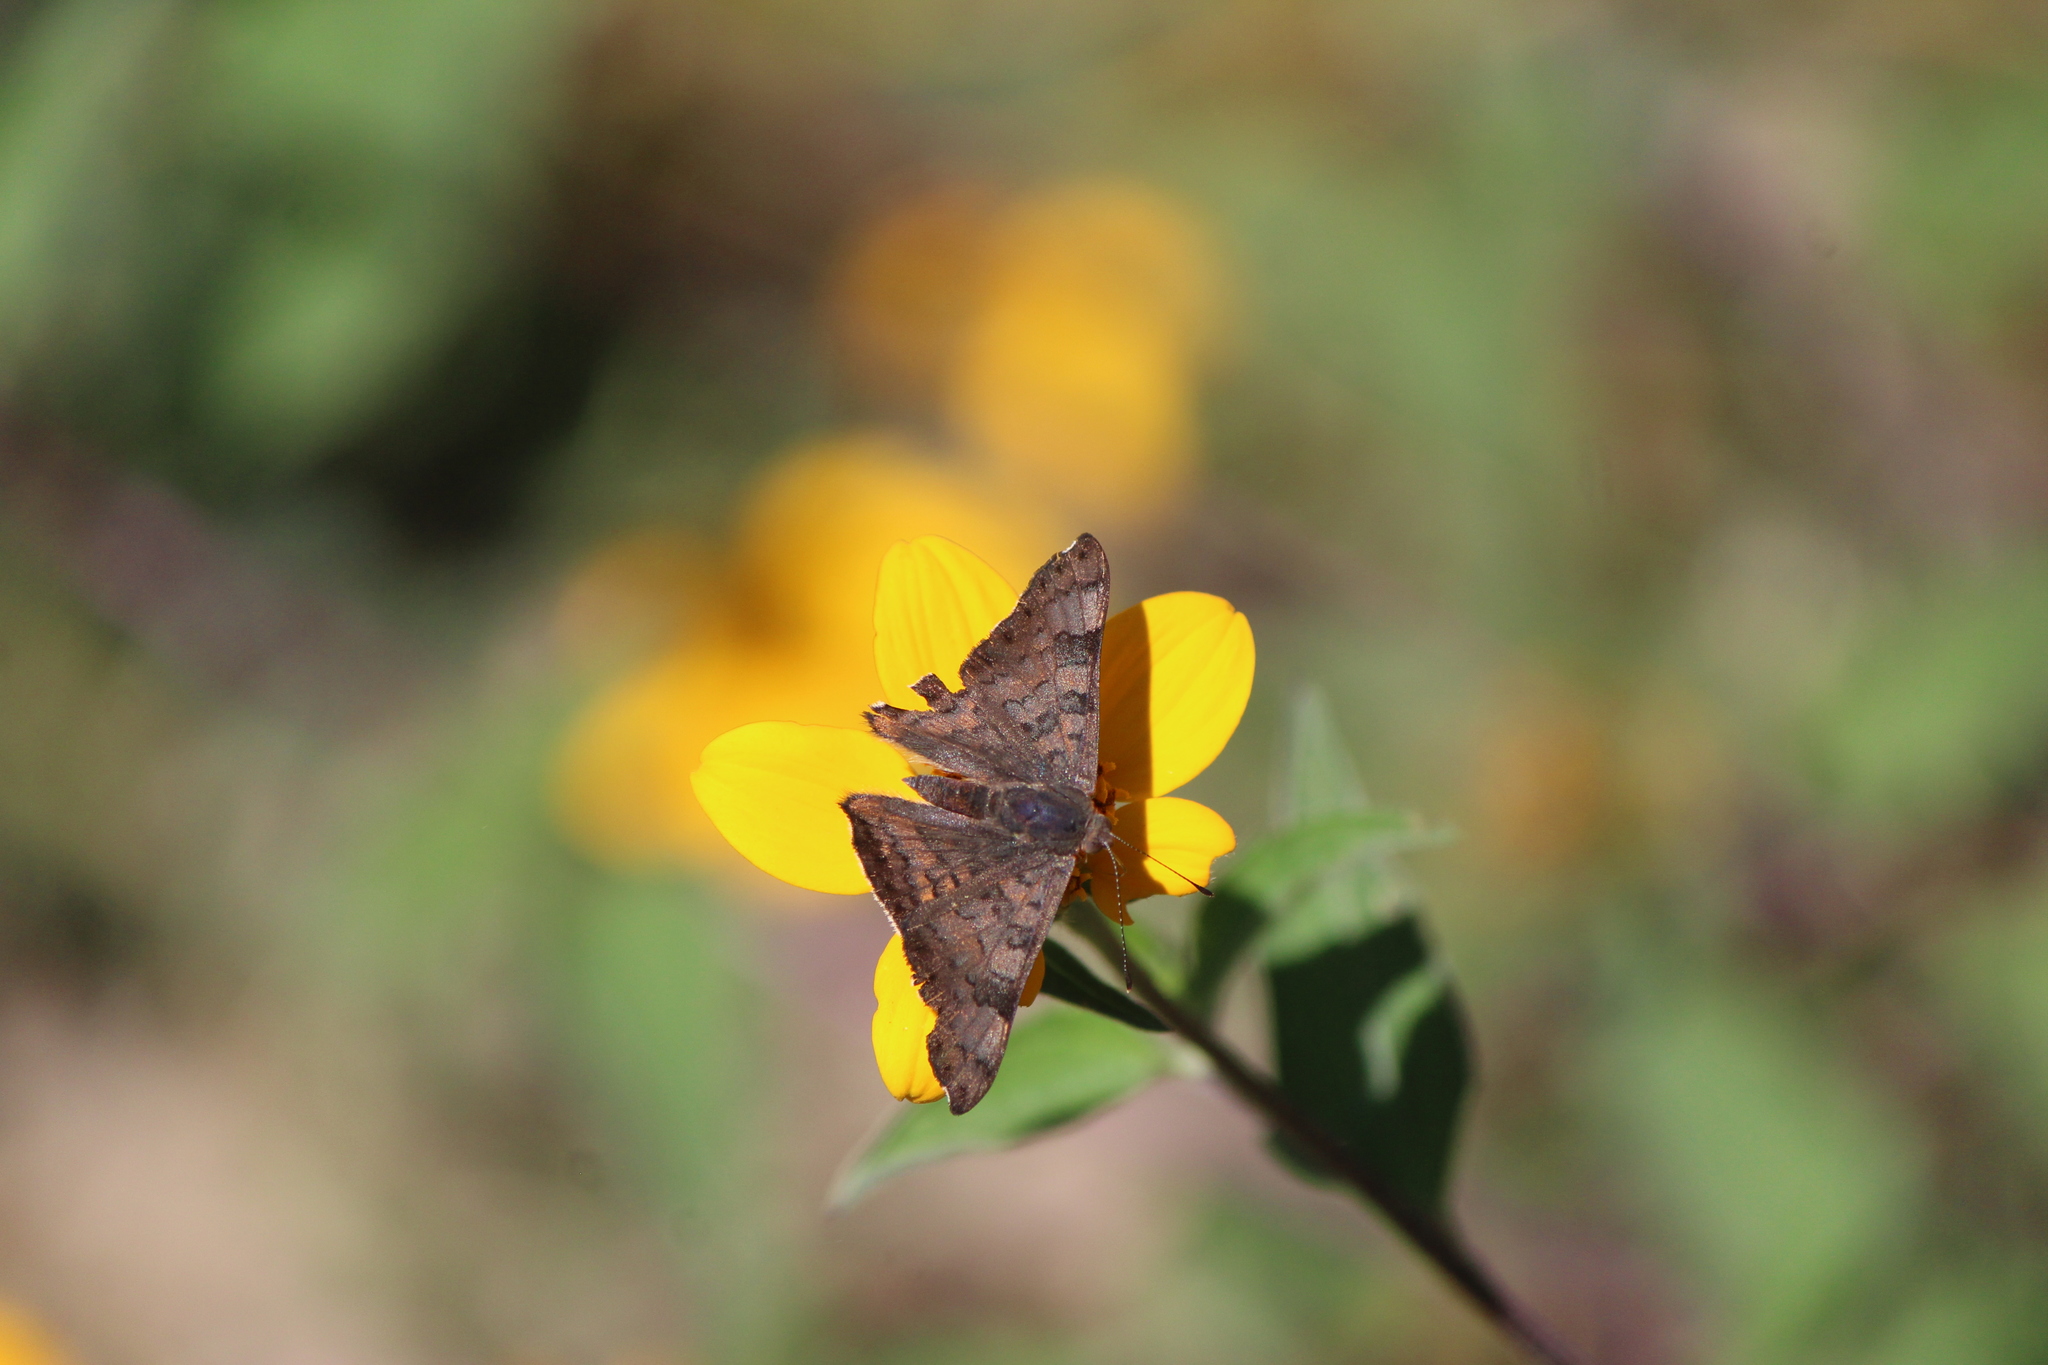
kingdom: Animalia
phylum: Arthropoda
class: Insecta
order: Lepidoptera
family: Riodinidae
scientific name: Riodinidae
